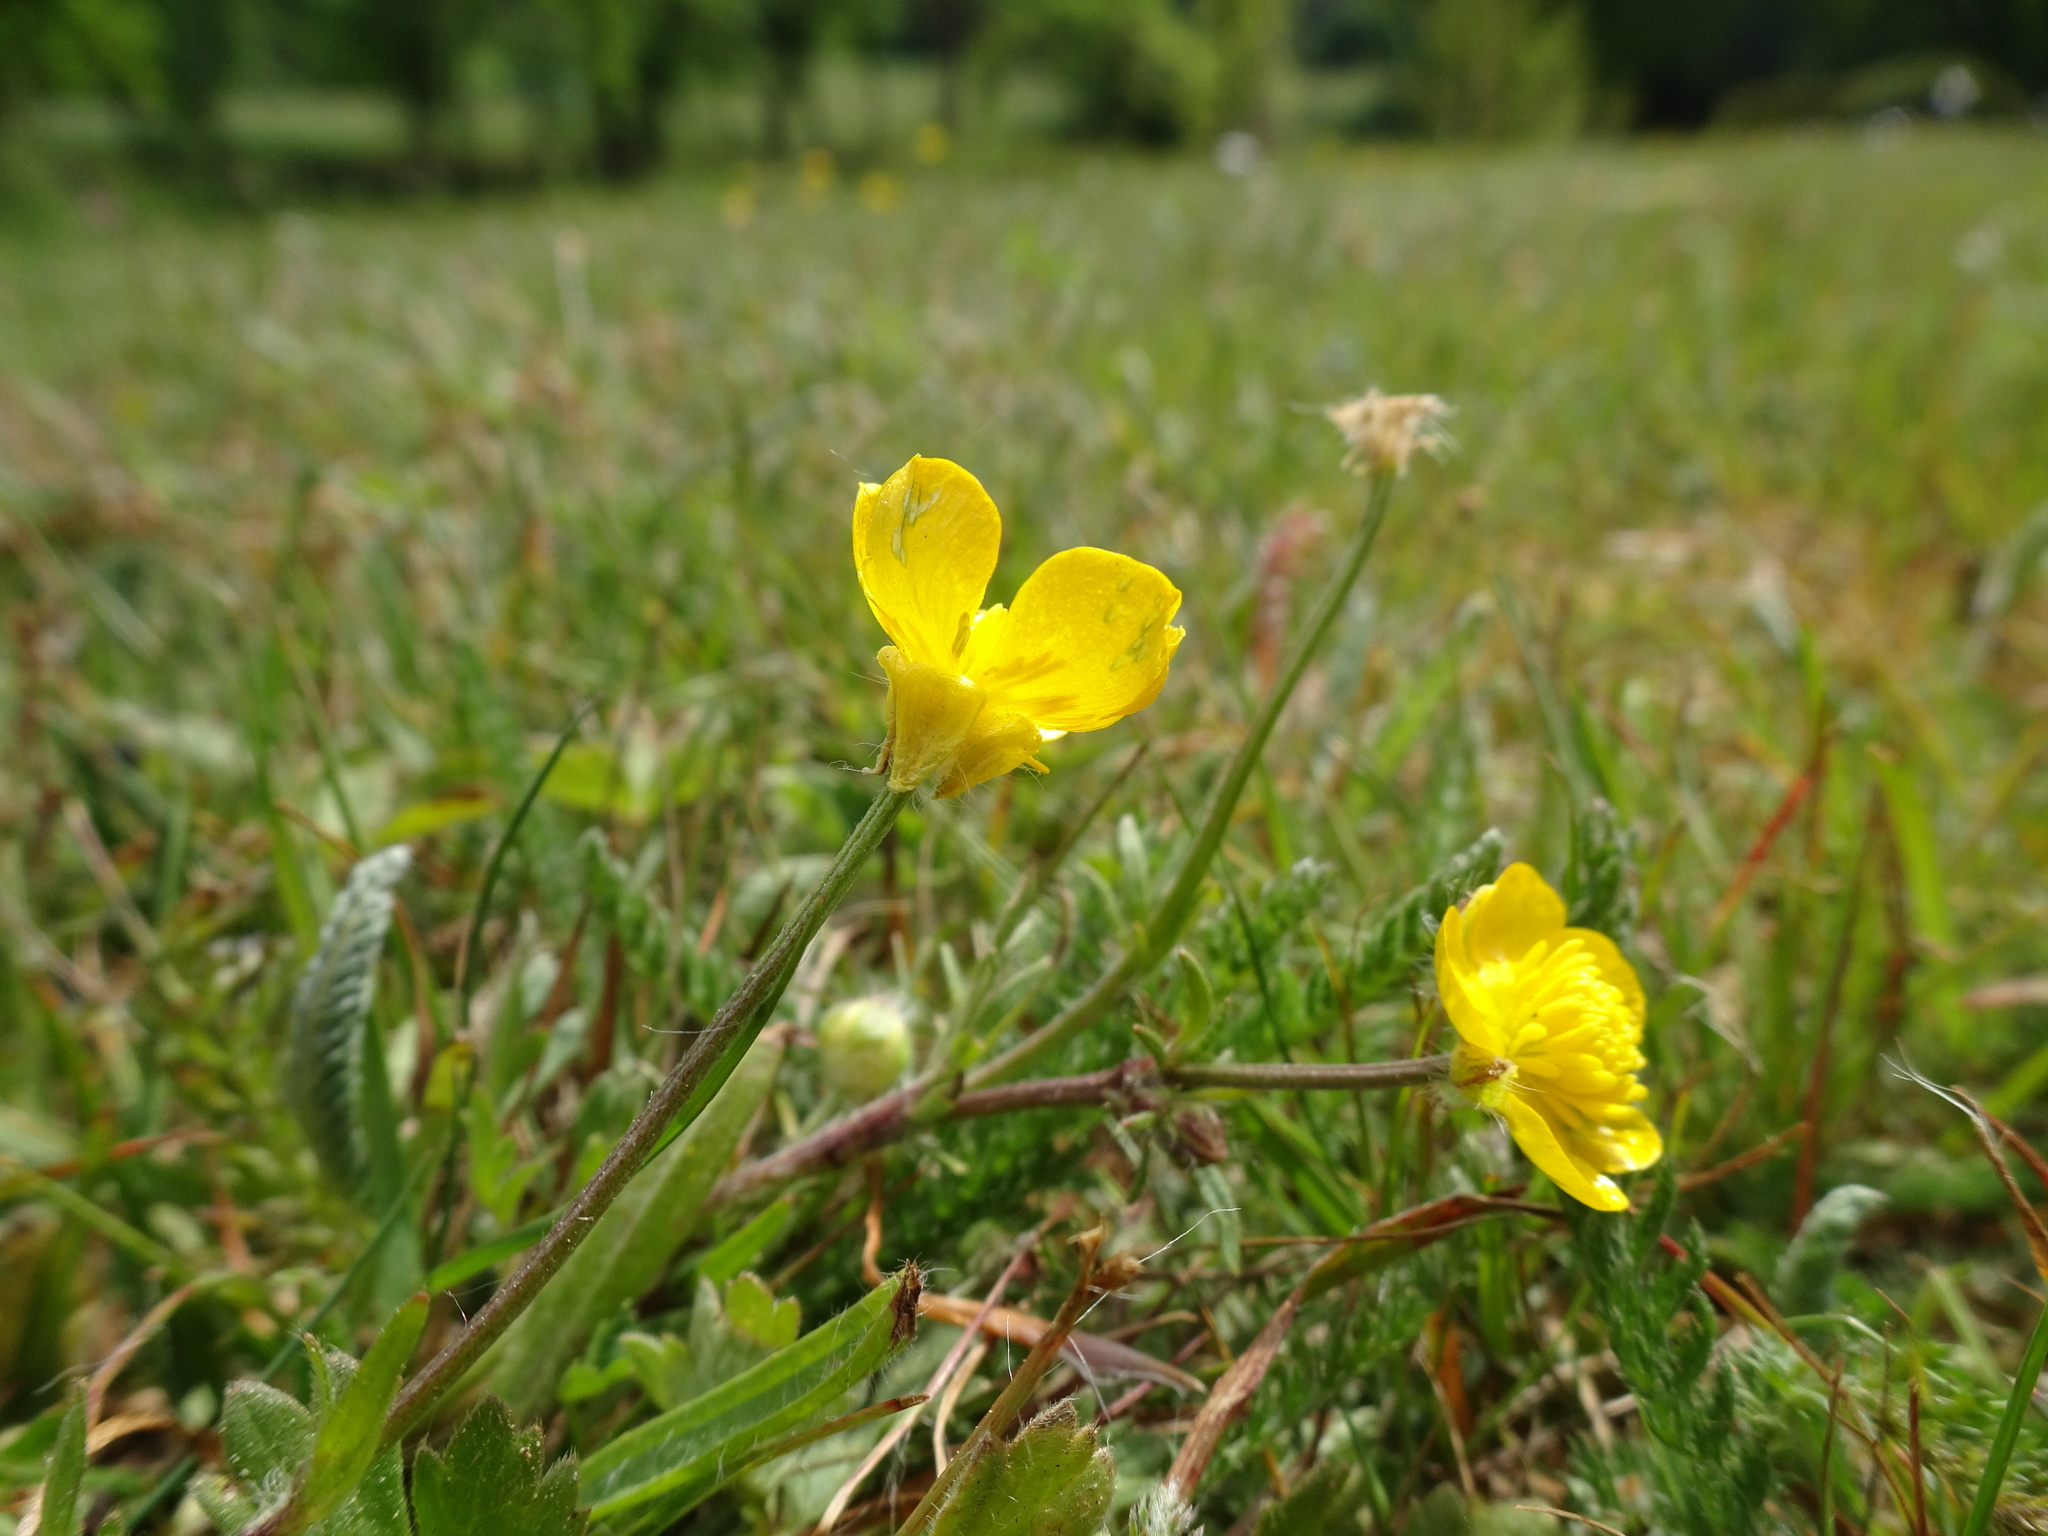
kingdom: Plantae
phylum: Tracheophyta
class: Magnoliopsida
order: Ranunculales
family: Ranunculaceae
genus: Ranunculus
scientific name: Ranunculus bulbosus
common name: Bulbous buttercup
